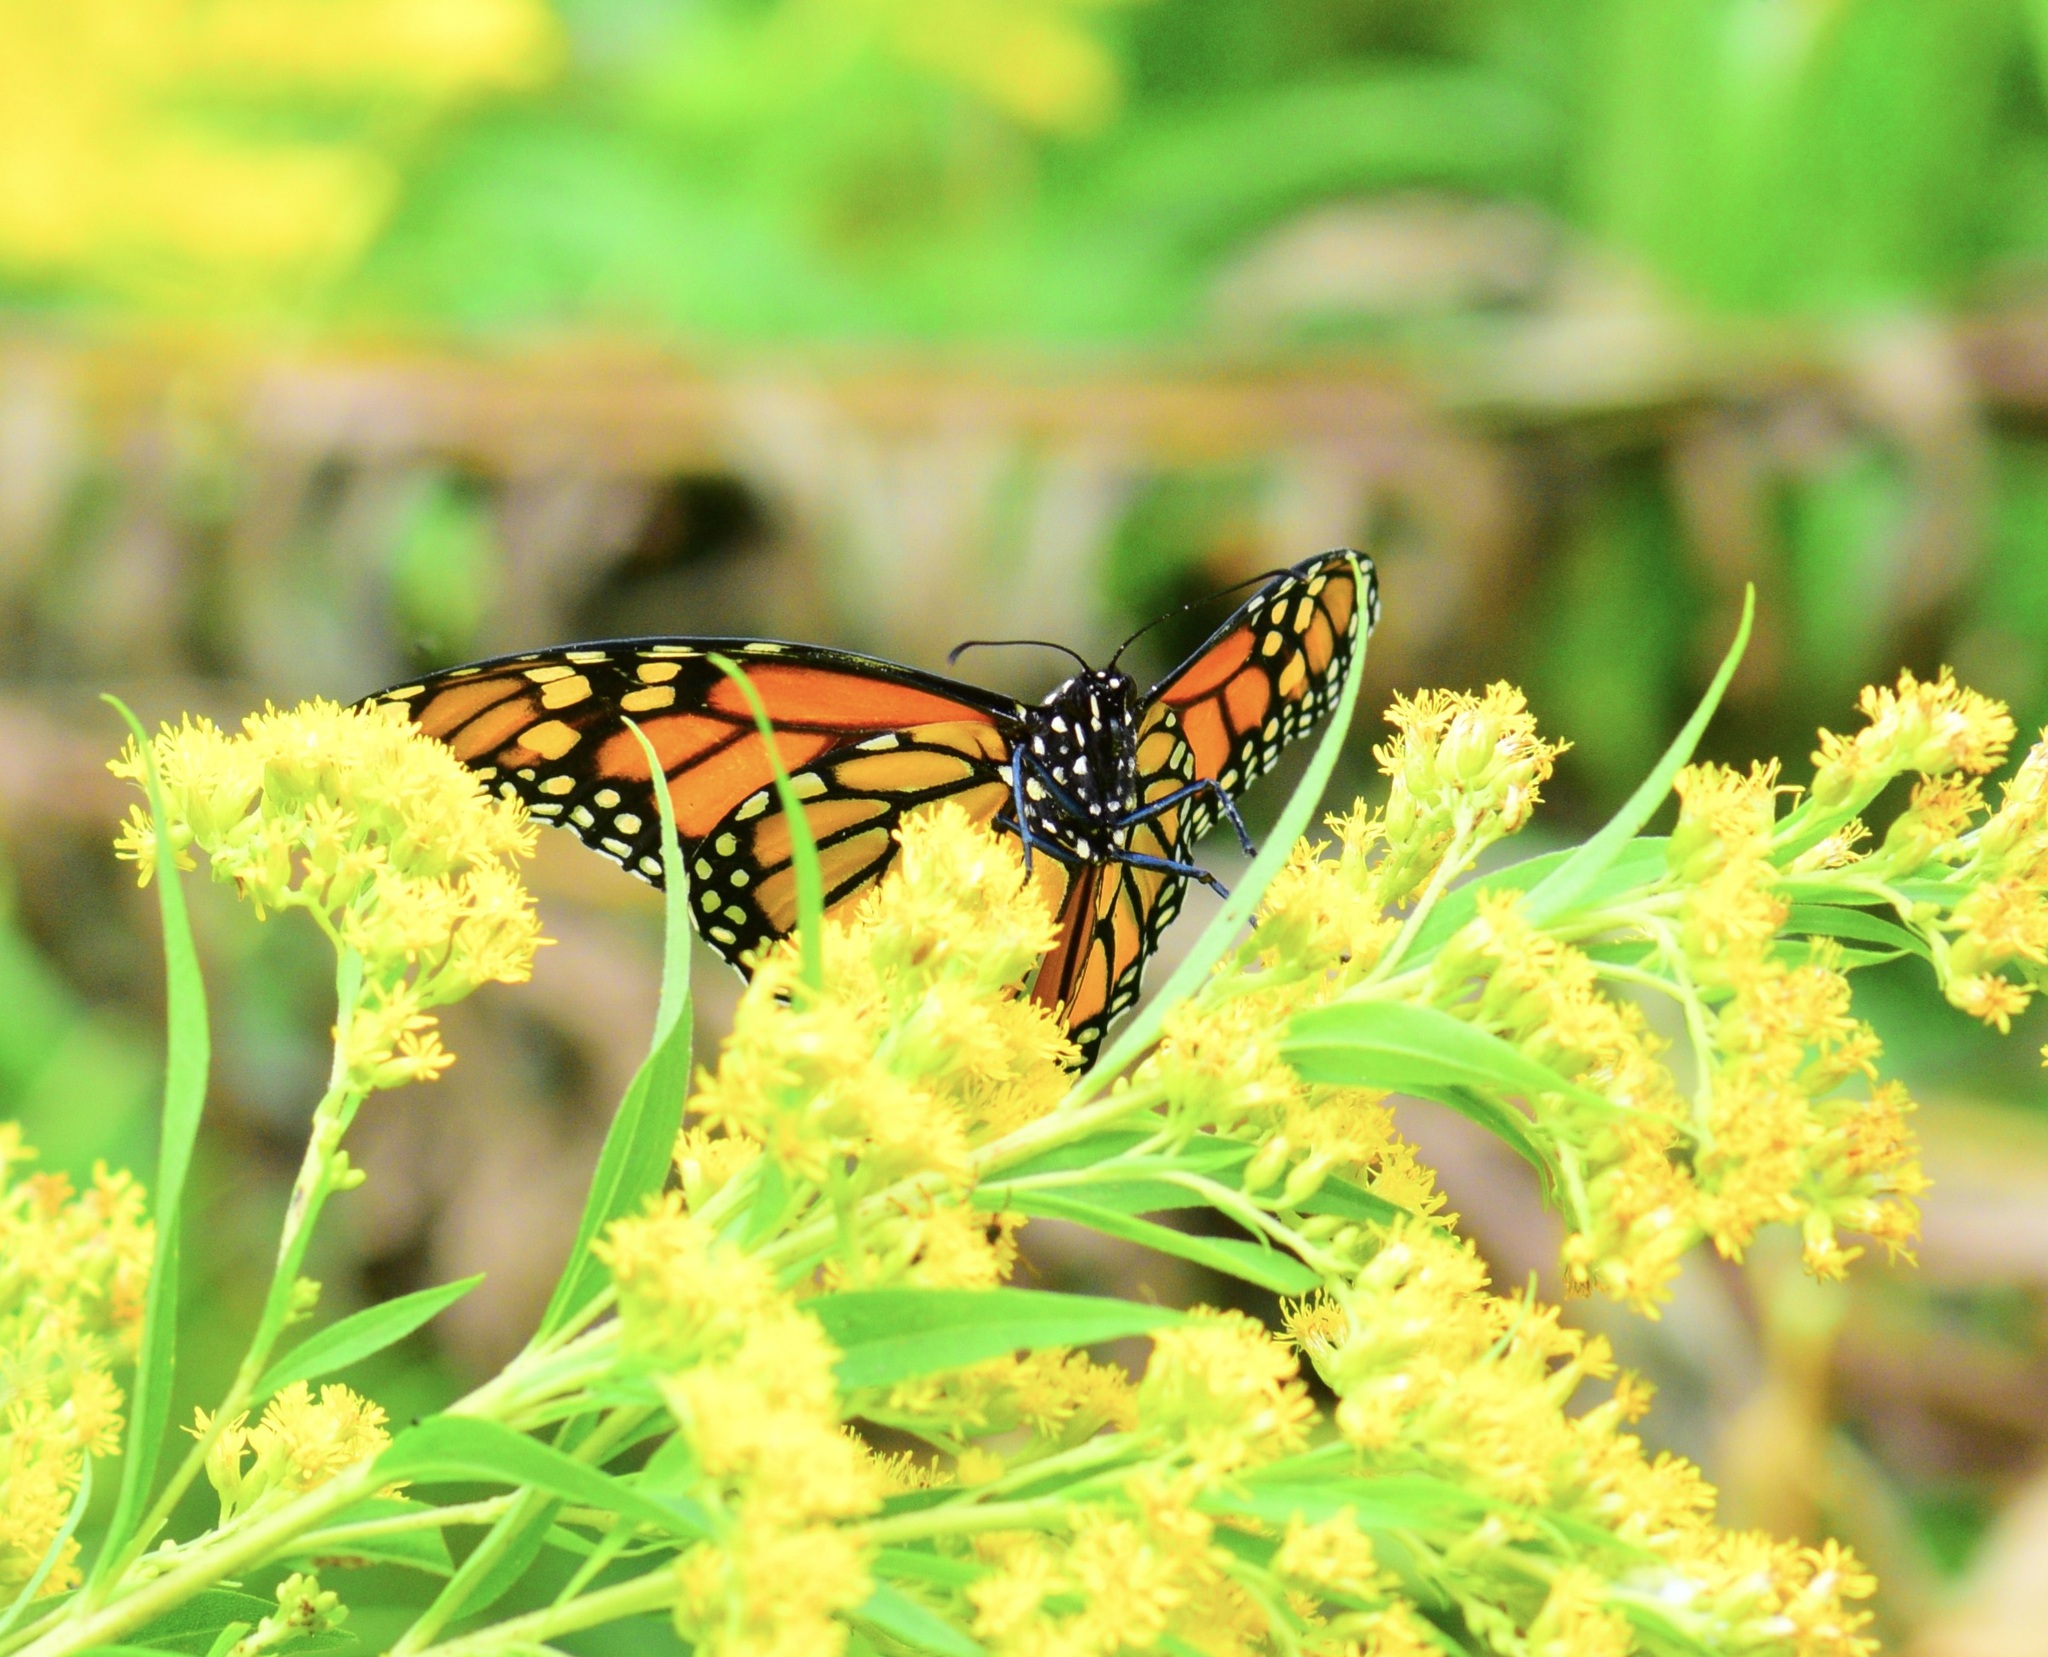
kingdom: Animalia
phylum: Arthropoda
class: Insecta
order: Lepidoptera
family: Nymphalidae
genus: Danaus
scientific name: Danaus plexippus
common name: Monarch
